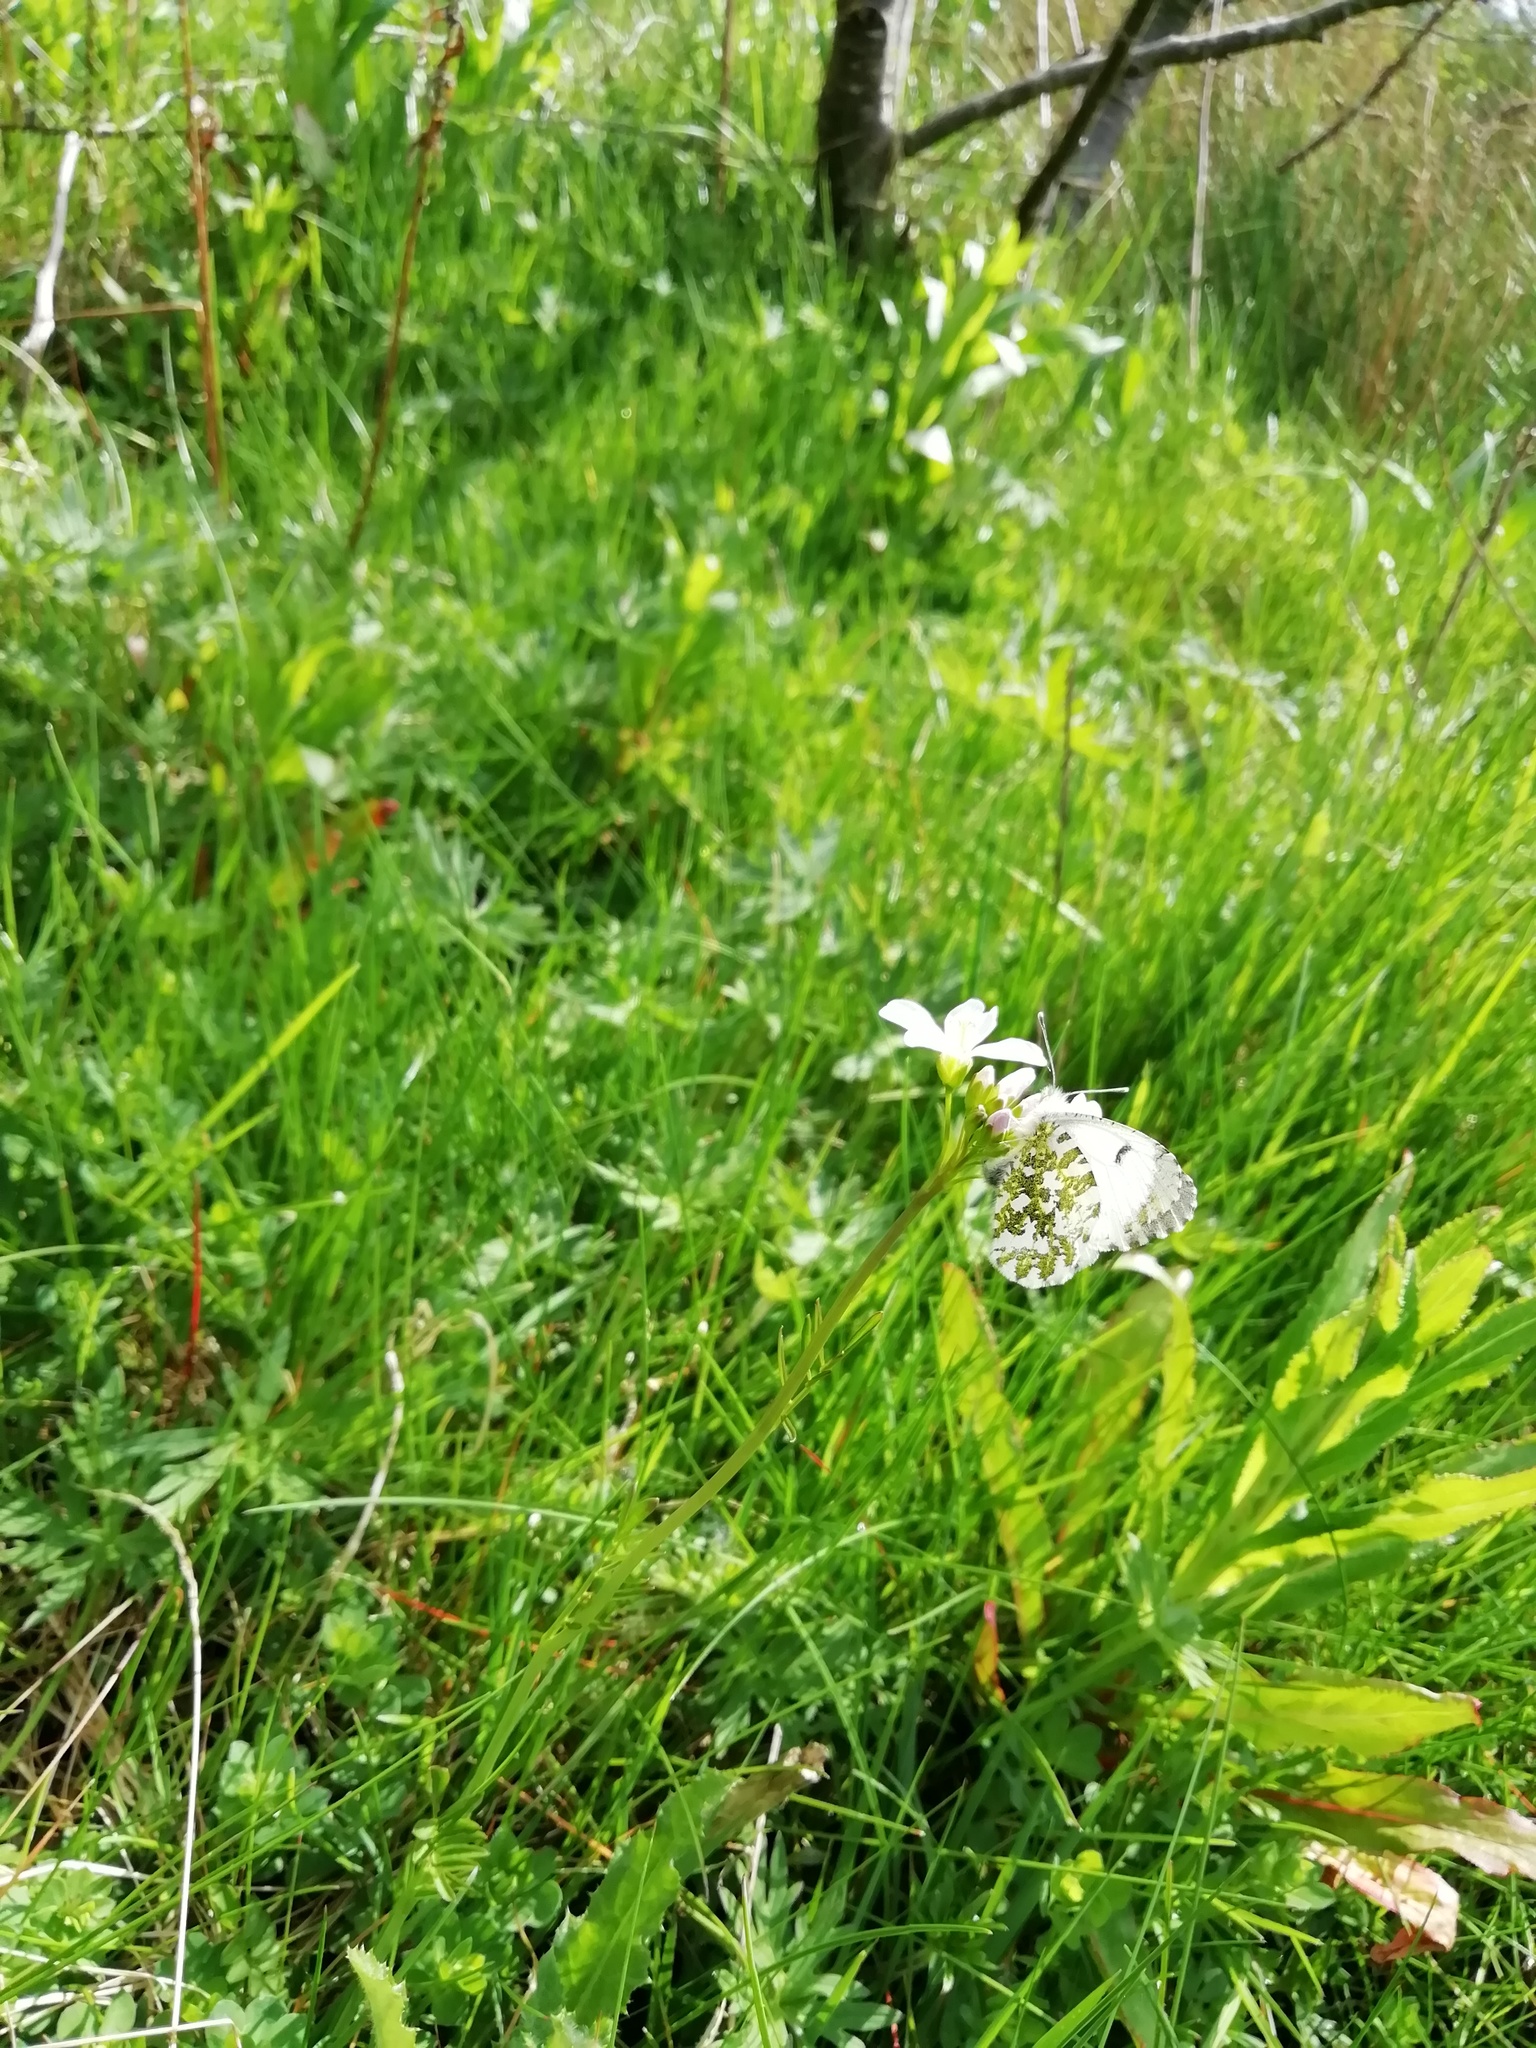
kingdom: Animalia
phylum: Arthropoda
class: Insecta
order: Lepidoptera
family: Pieridae
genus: Anthocharis
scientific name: Anthocharis cardamines
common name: Orange-tip
